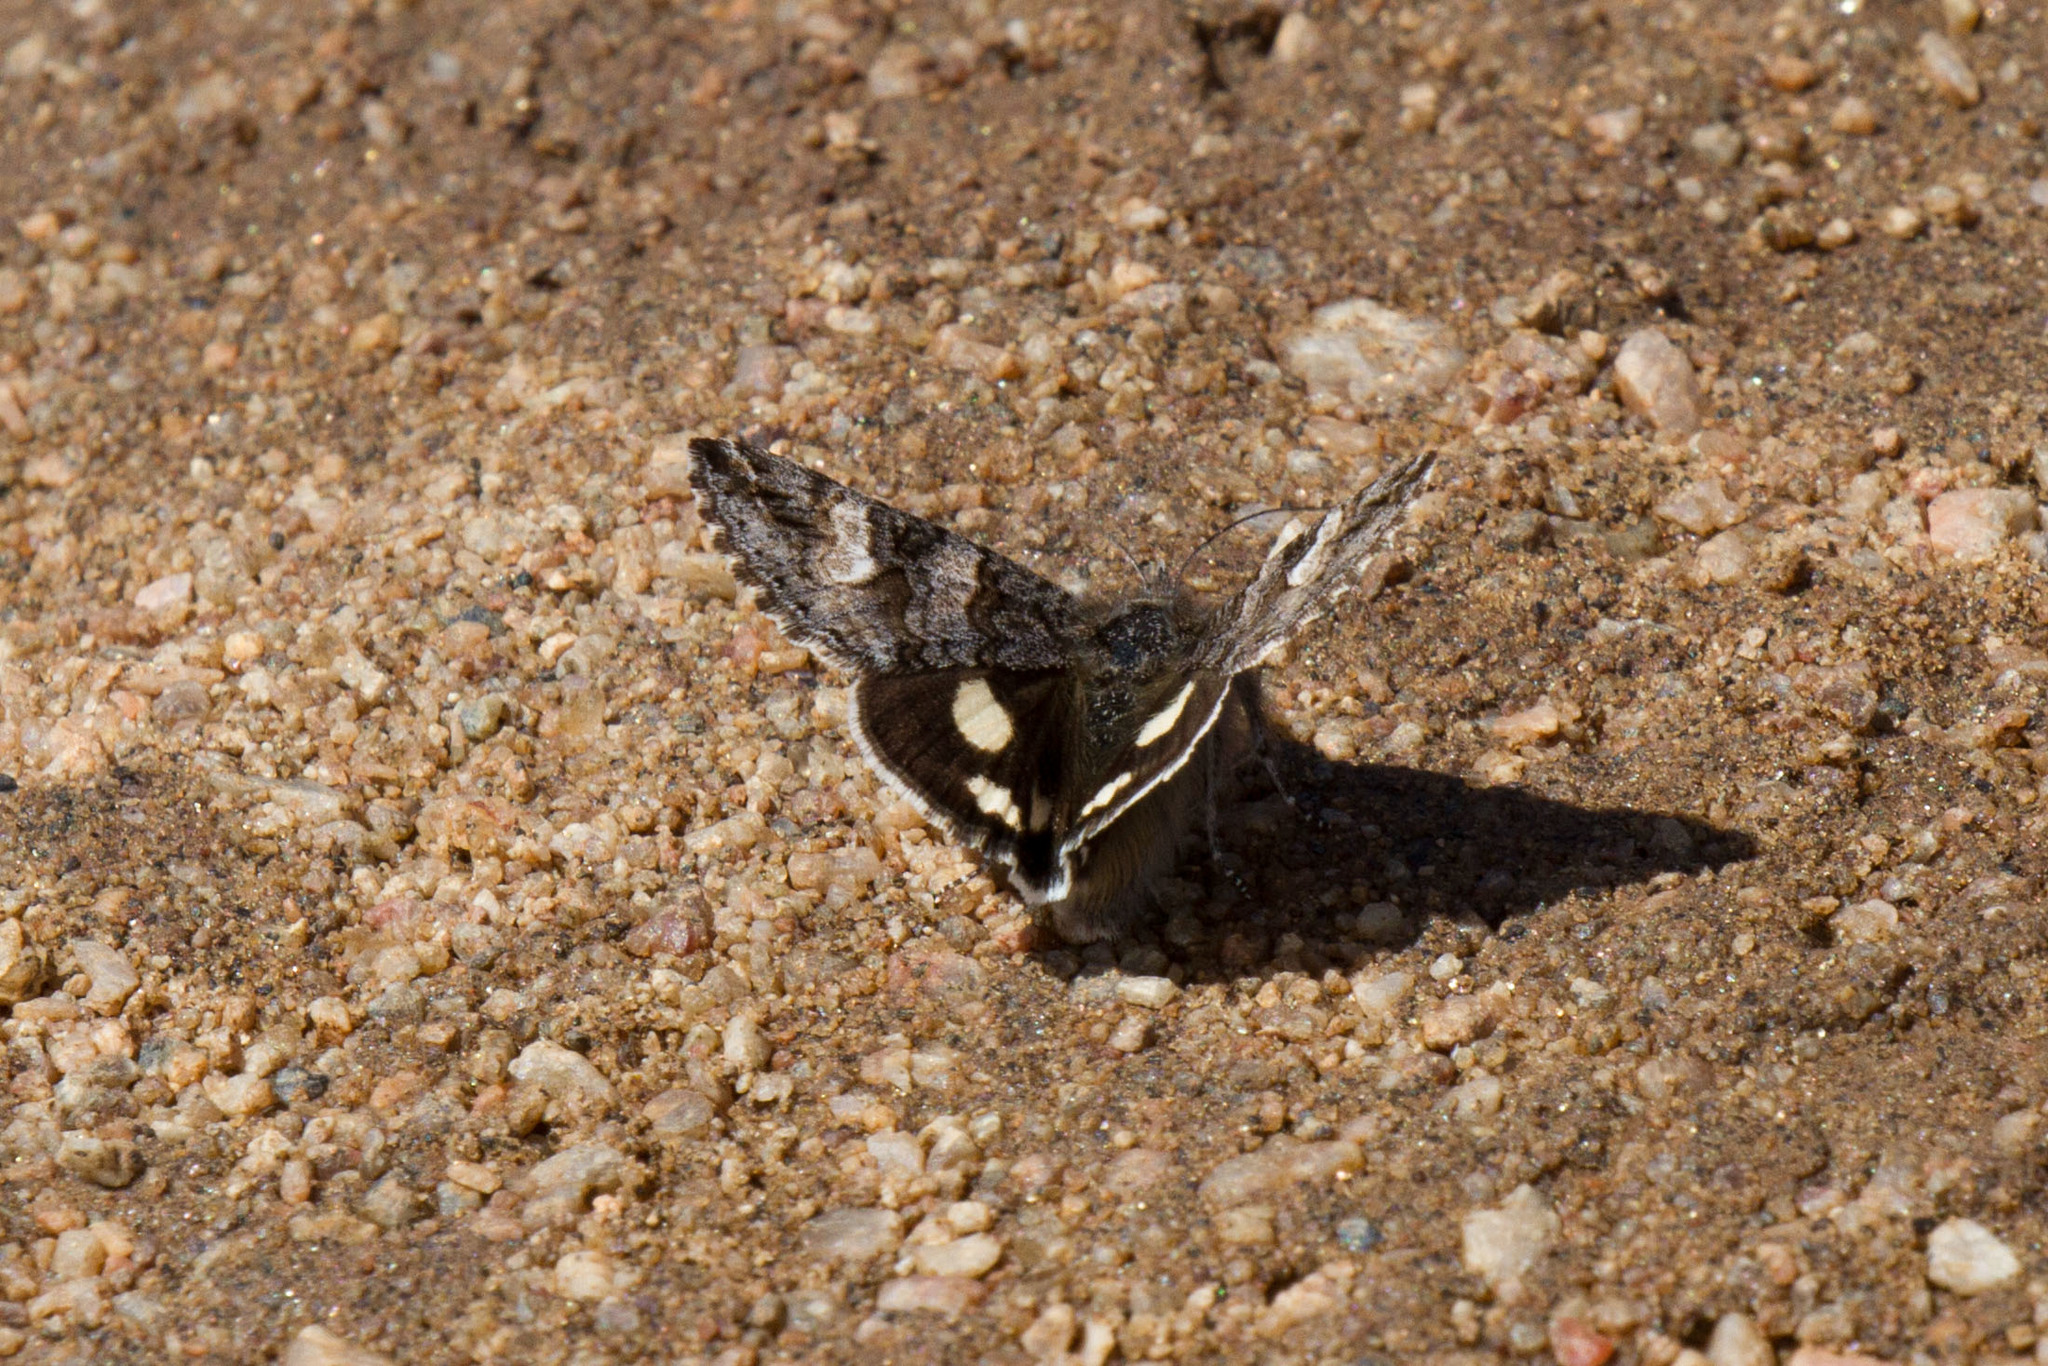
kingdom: Animalia
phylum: Arthropoda
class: Insecta
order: Lepidoptera
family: Erebidae
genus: Litocala
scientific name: Litocala sexsignata
